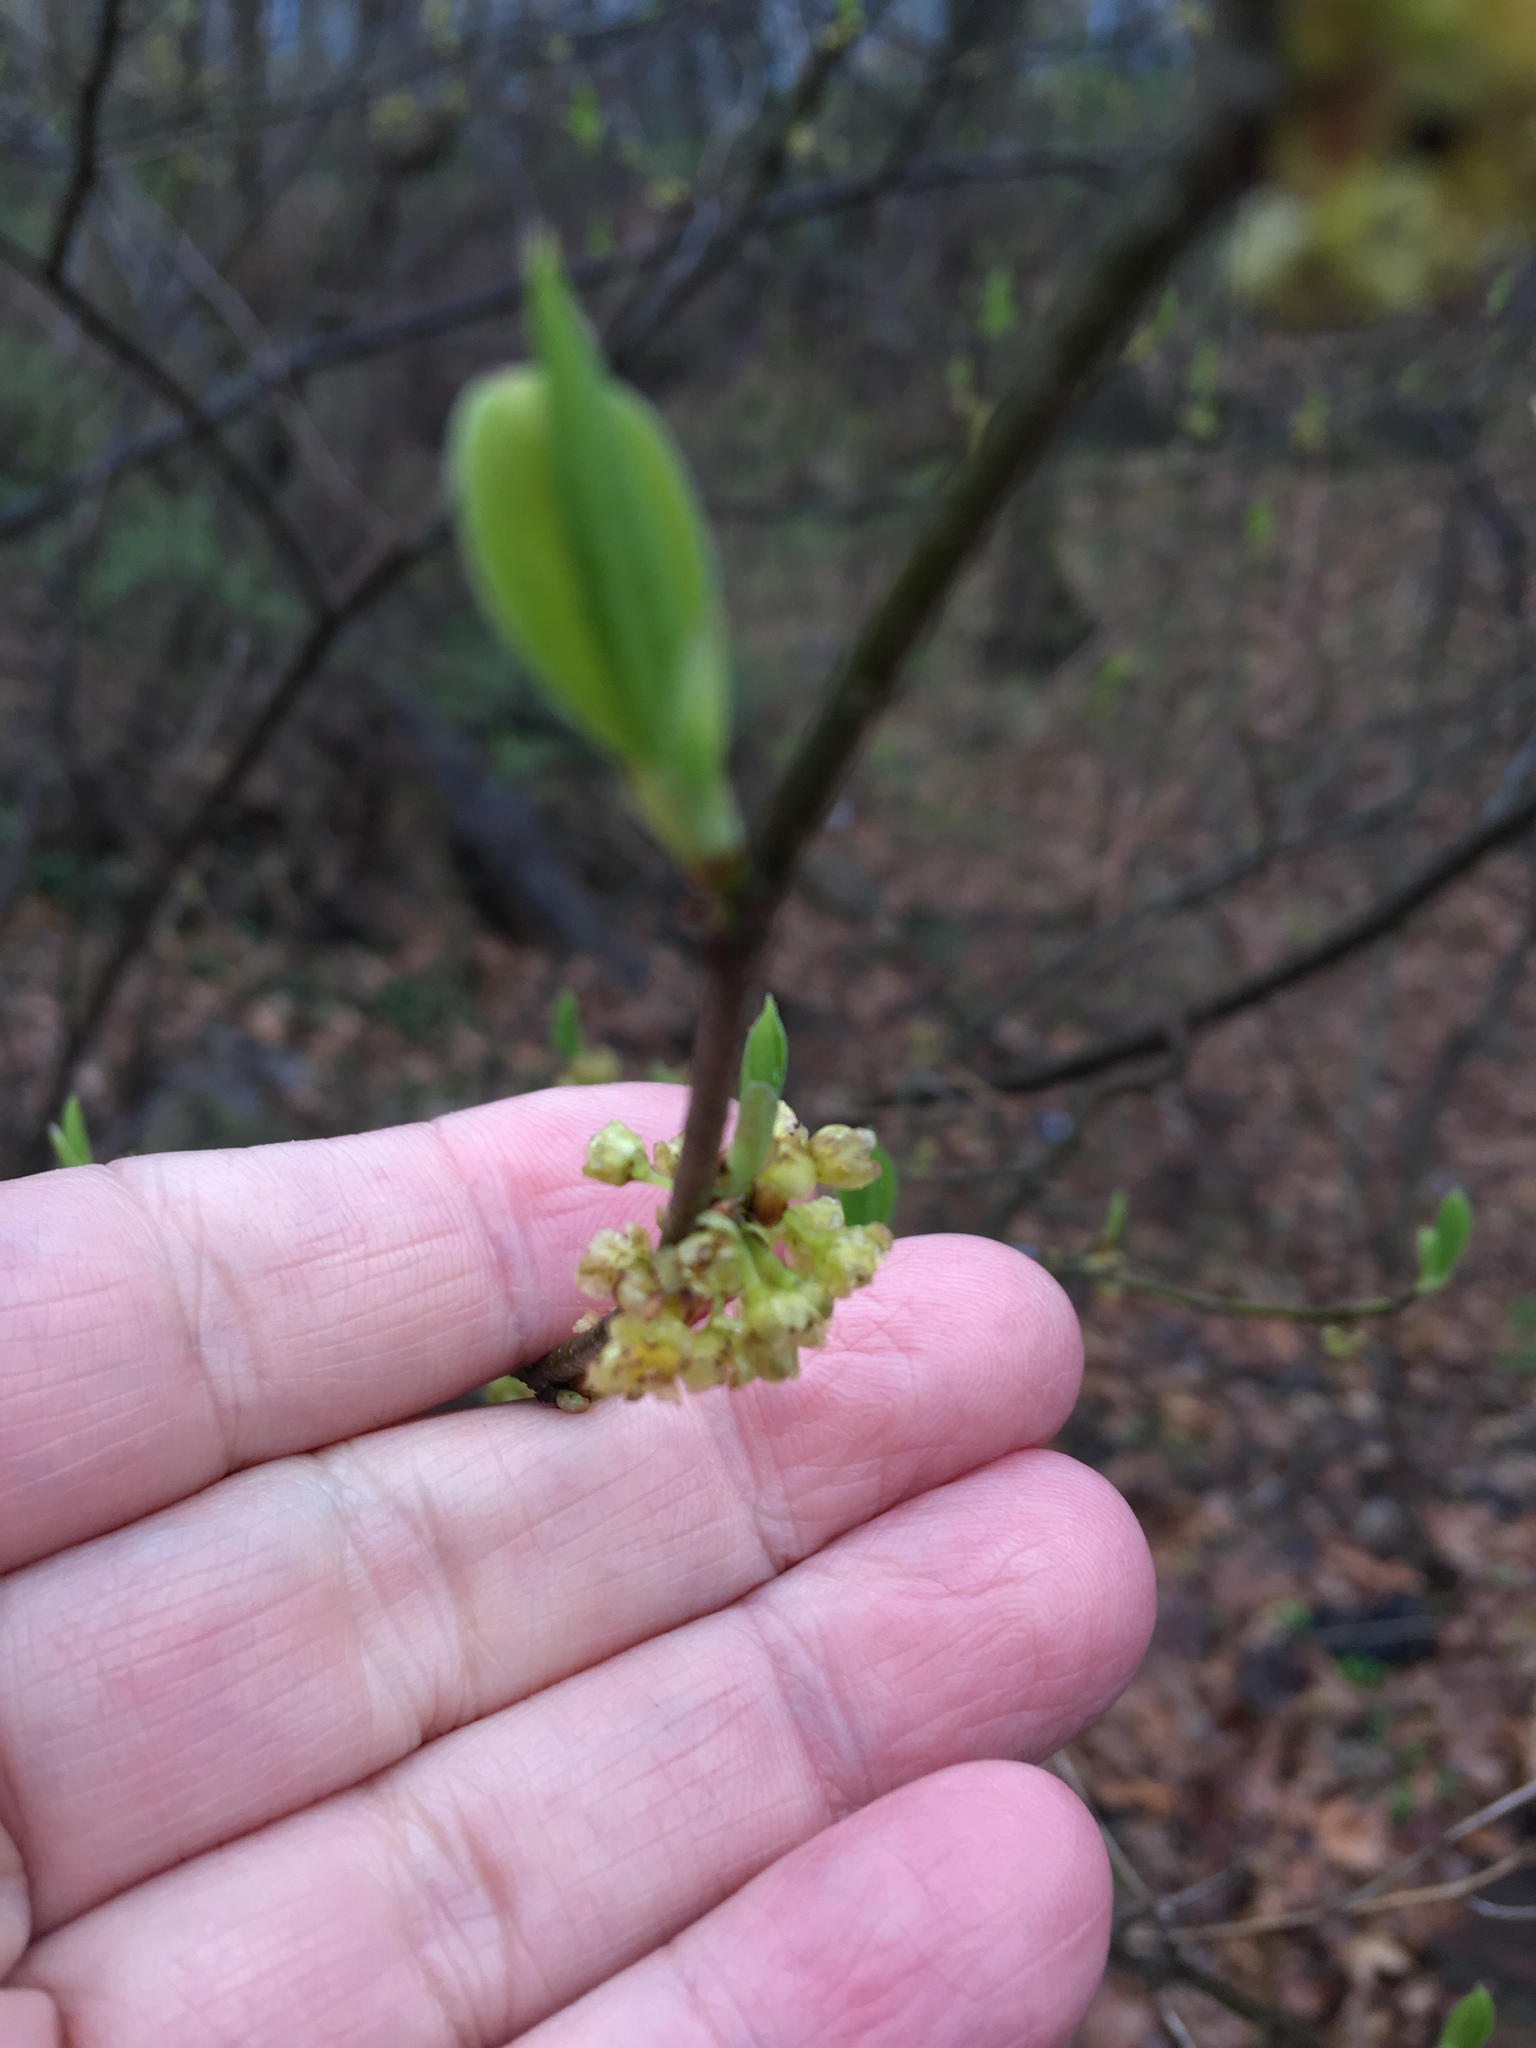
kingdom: Plantae
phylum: Tracheophyta
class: Magnoliopsida
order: Laurales
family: Lauraceae
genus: Lindera
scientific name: Lindera benzoin
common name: Spicebush
